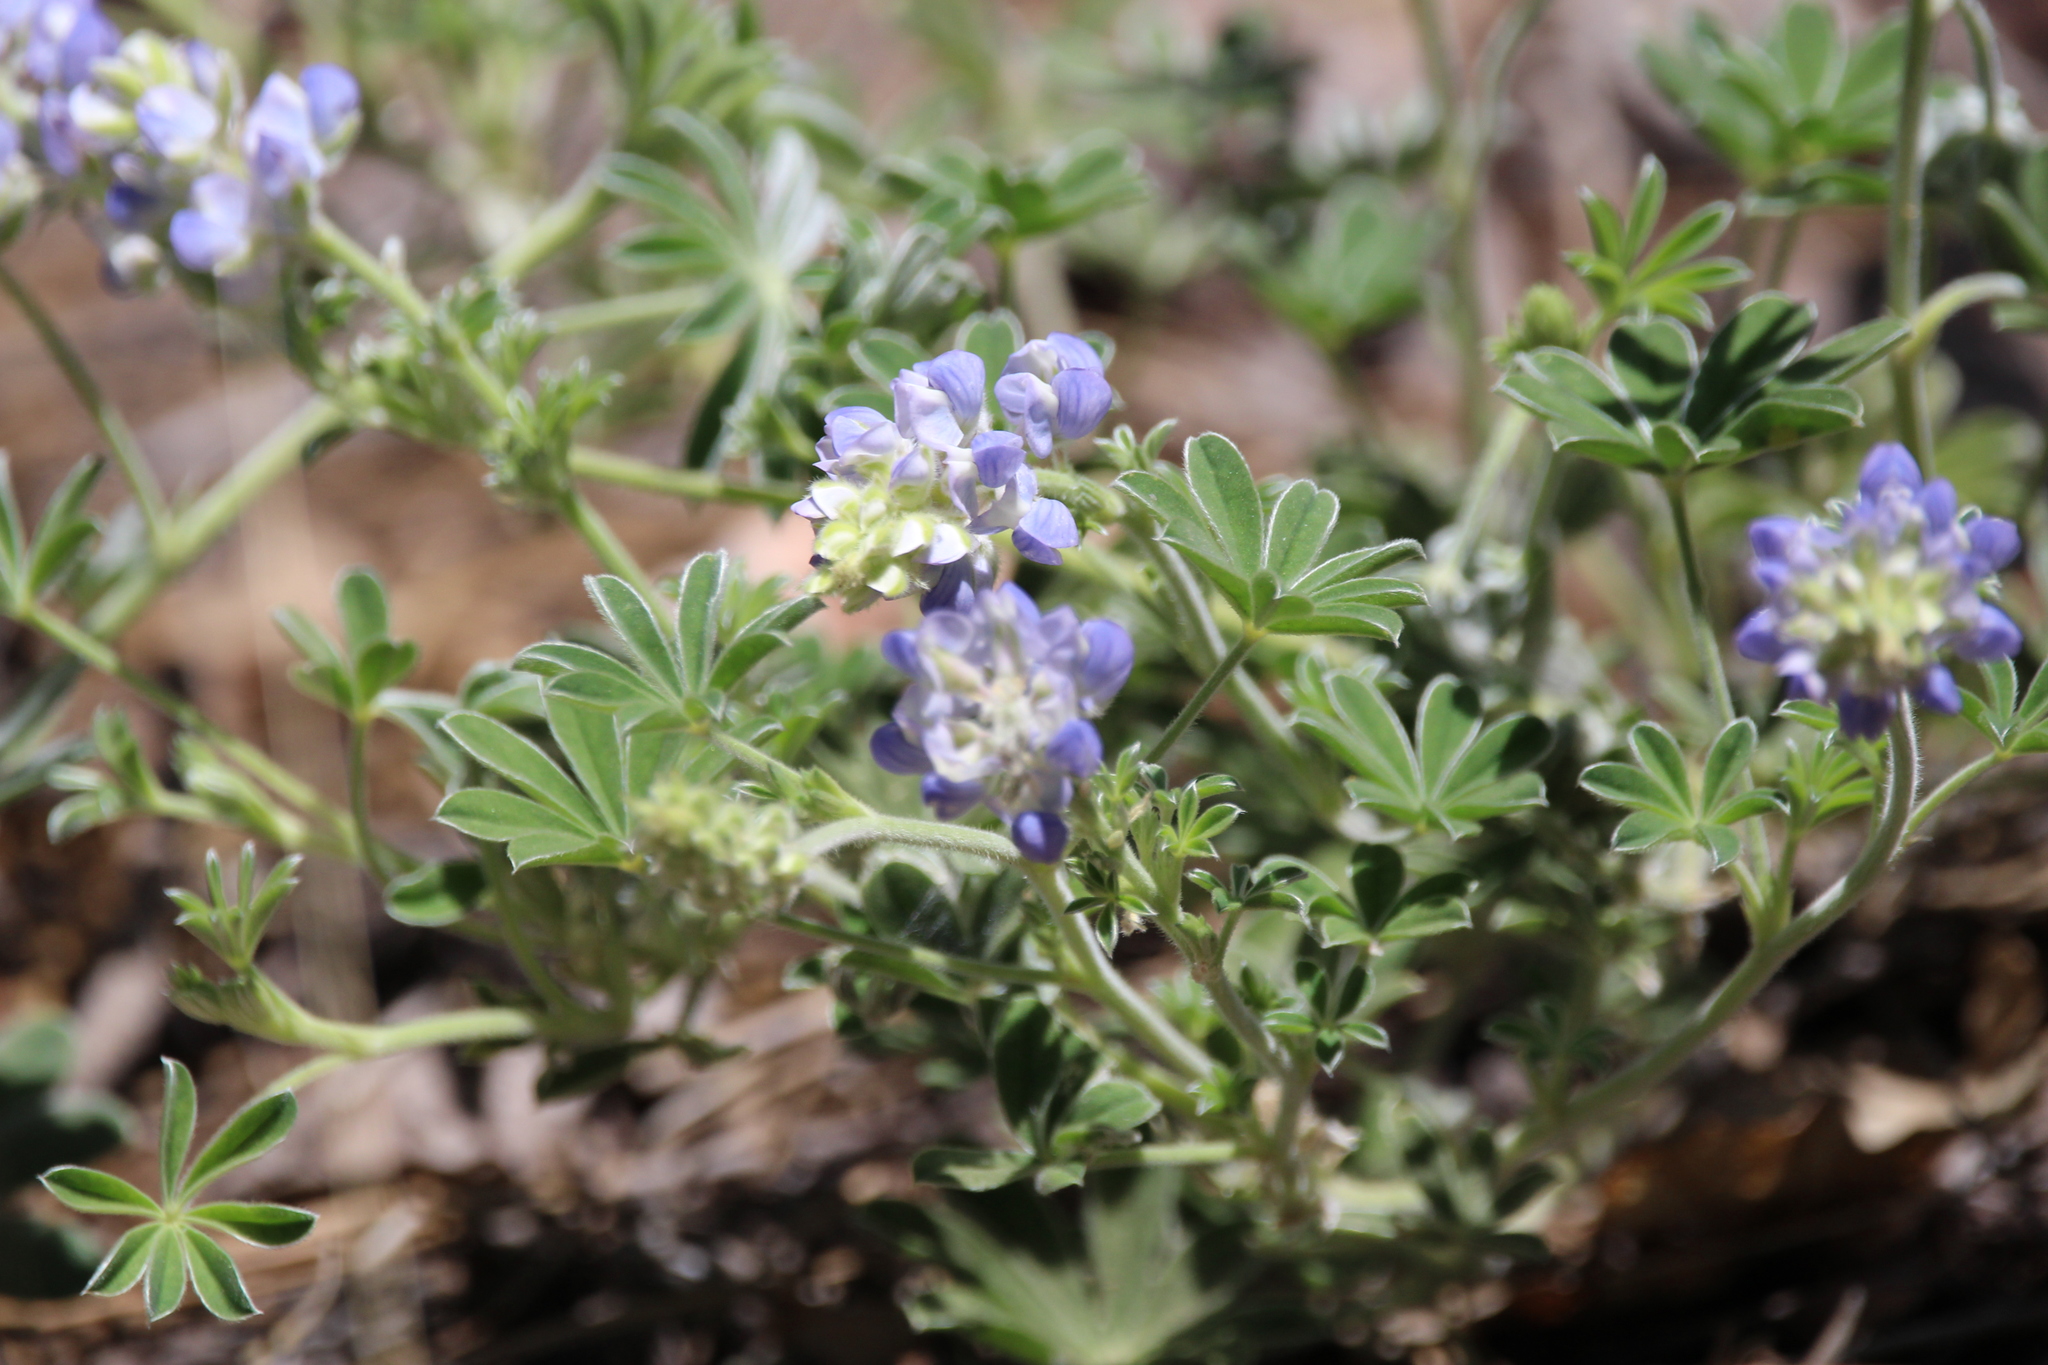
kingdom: Plantae
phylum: Tracheophyta
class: Magnoliopsida
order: Fabales
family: Fabaceae
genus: Lupinus
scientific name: Lupinus argenteus
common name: Silvery lupine
